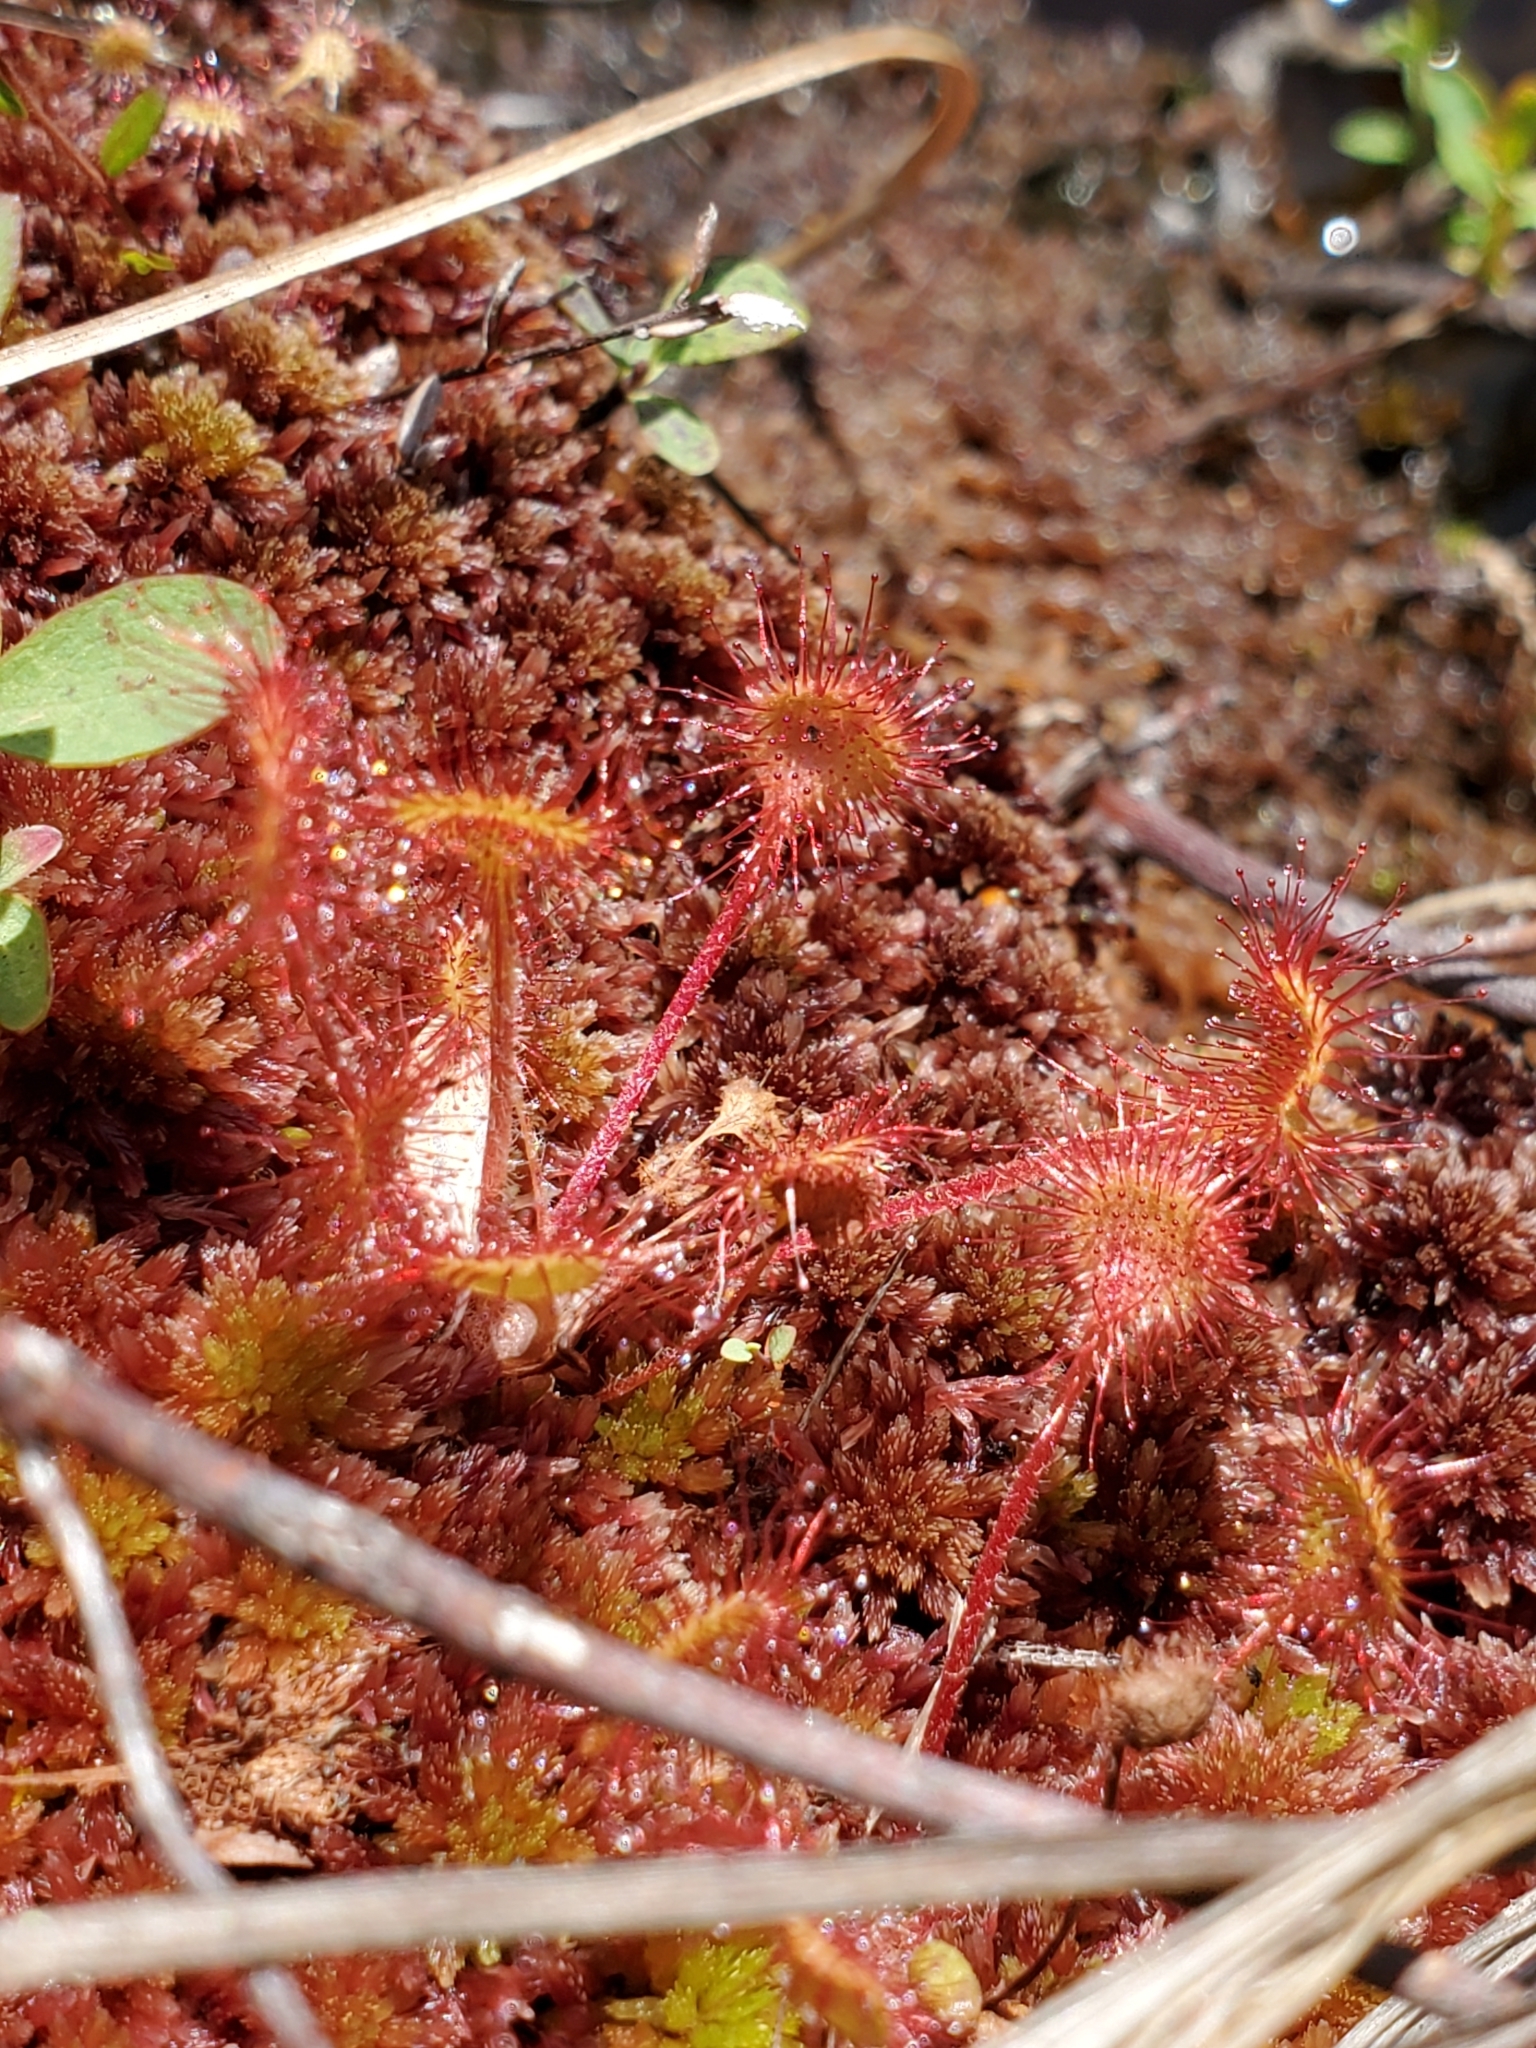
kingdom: Plantae
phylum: Tracheophyta
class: Magnoliopsida
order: Caryophyllales
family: Droseraceae
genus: Drosera
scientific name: Drosera rotundifolia
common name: Round-leaved sundew
